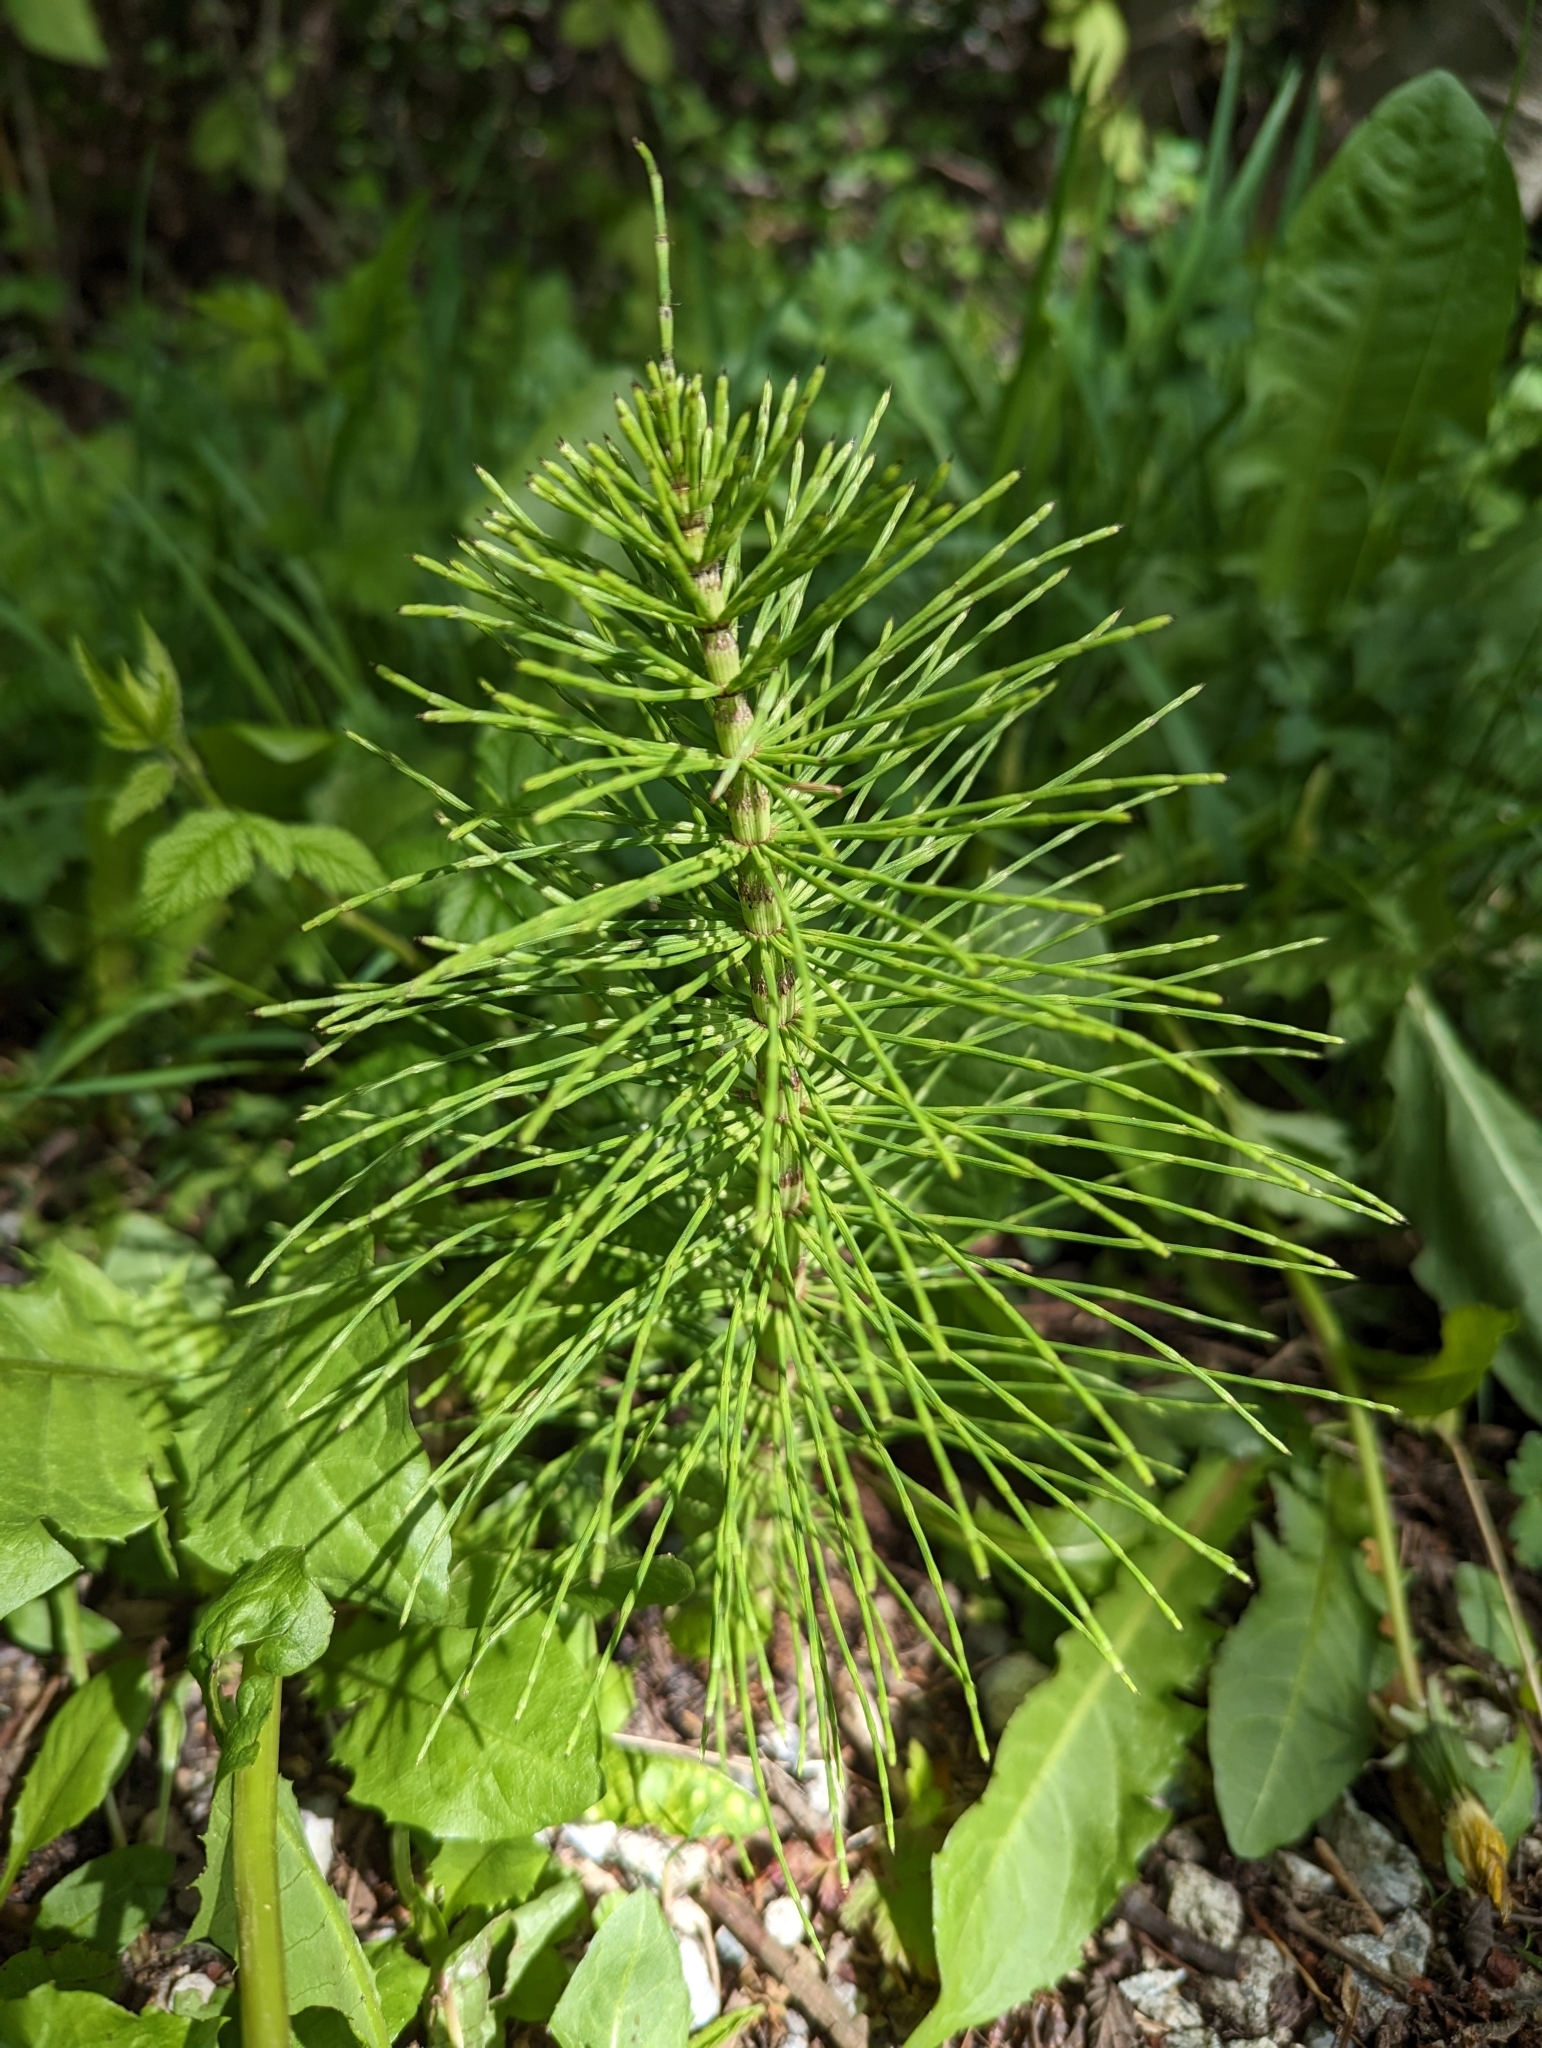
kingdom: Plantae
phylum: Tracheophyta
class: Polypodiopsida
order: Equisetales
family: Equisetaceae
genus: Equisetum
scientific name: Equisetum braunii
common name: Braun's horsetail
